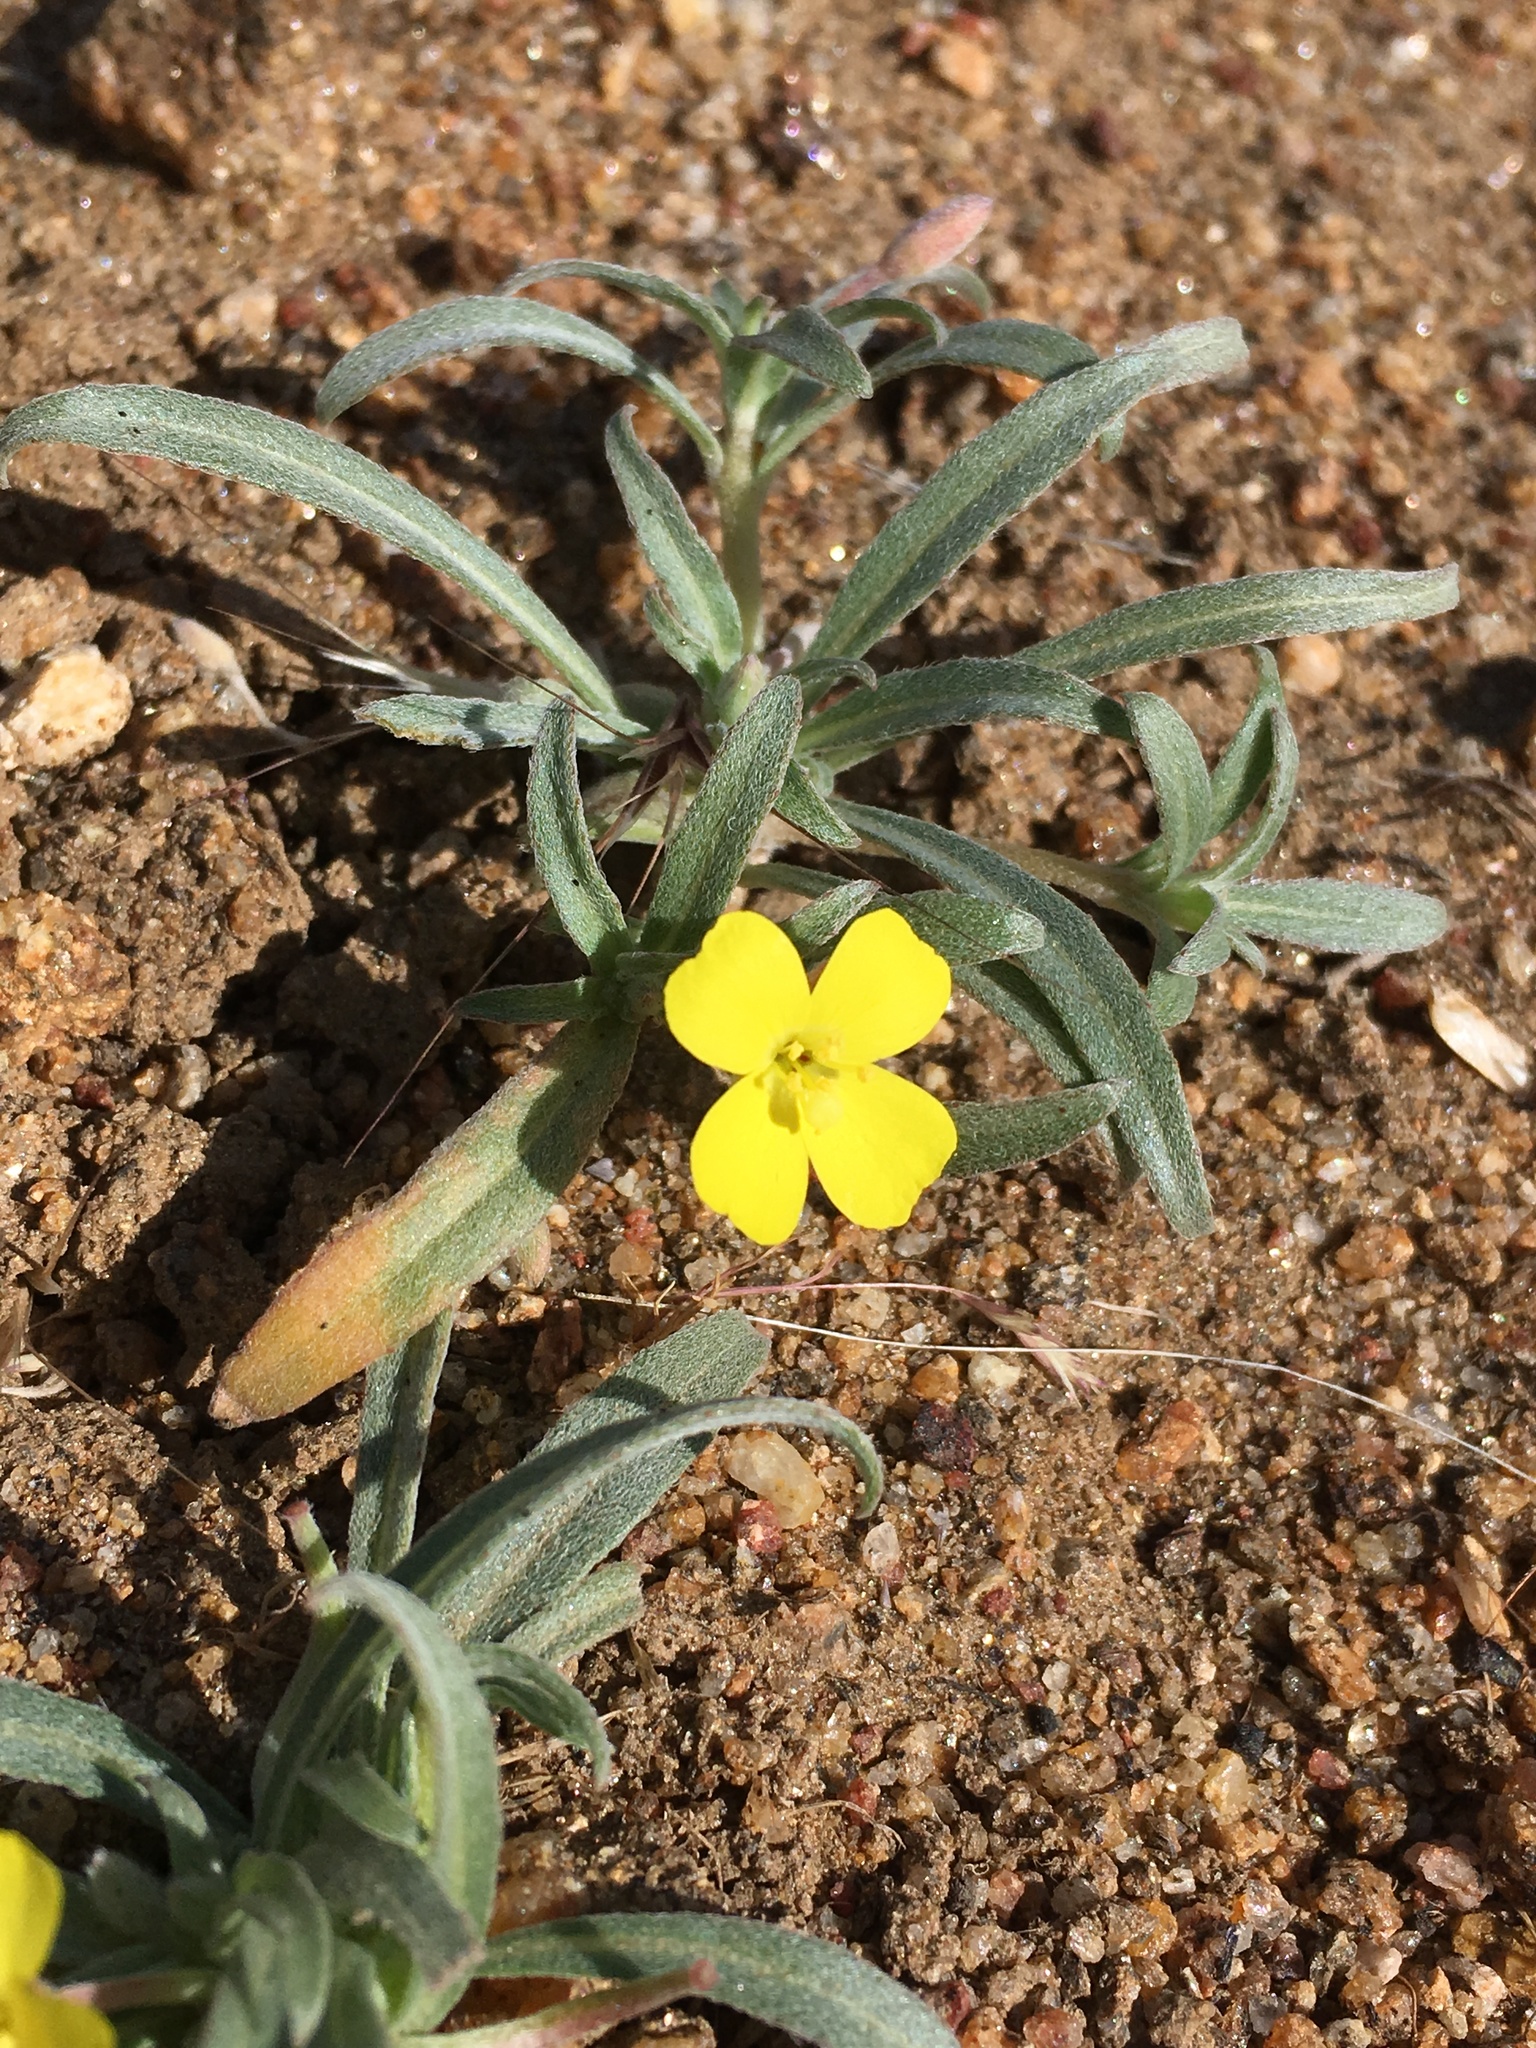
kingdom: Plantae
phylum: Tracheophyta
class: Magnoliopsida
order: Myrtales
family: Onagraceae
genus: Camissoniopsis
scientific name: Camissoniopsis pallida
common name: Paleyellow suncup
